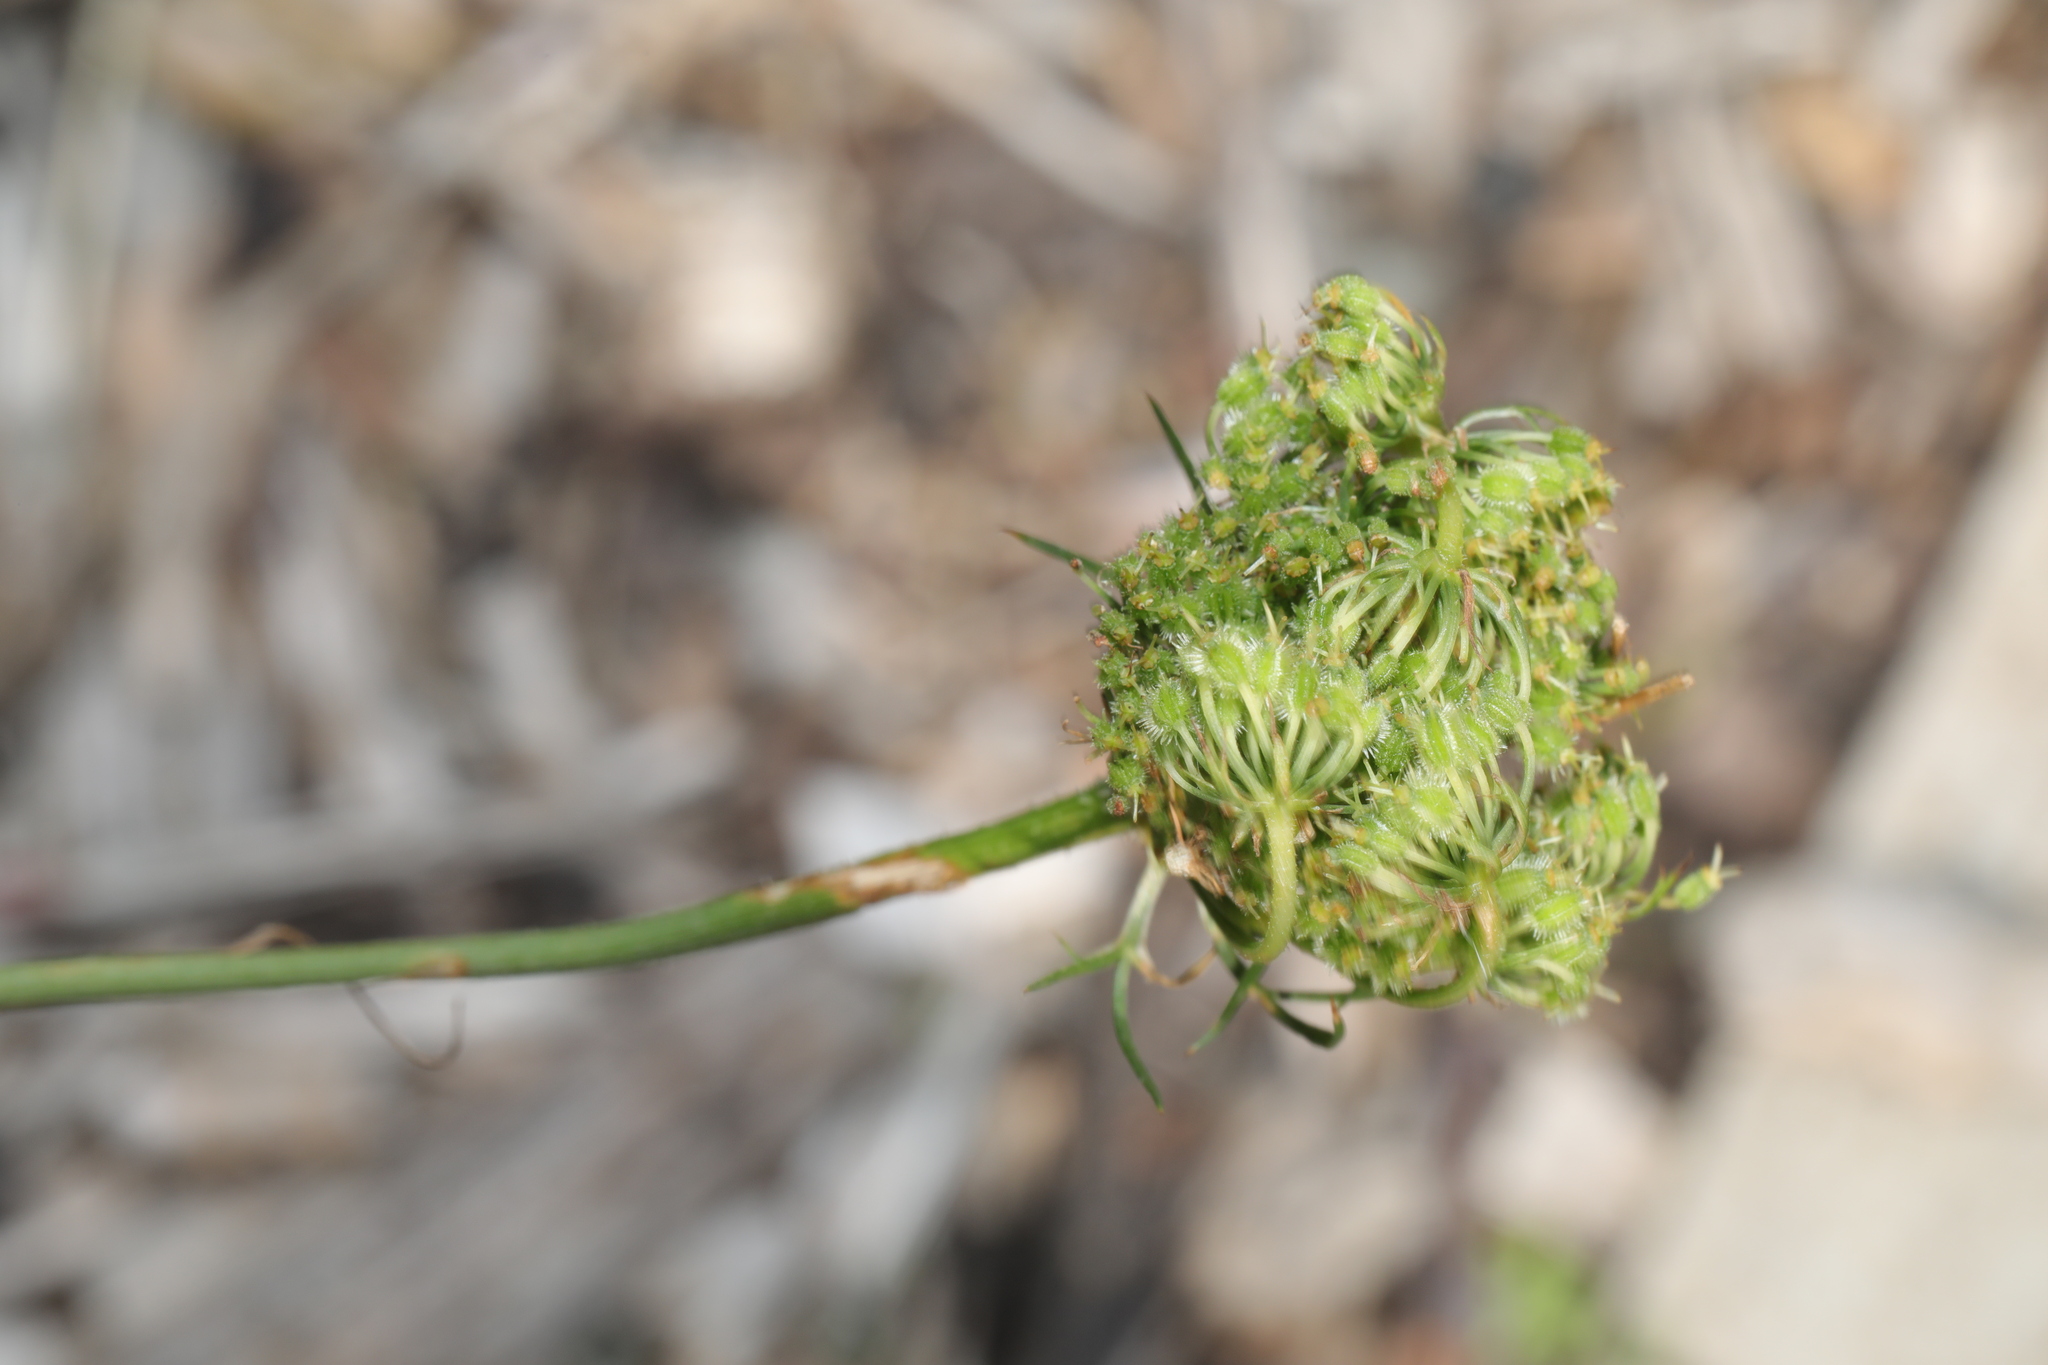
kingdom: Plantae
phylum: Tracheophyta
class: Magnoliopsida
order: Apiales
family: Apiaceae
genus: Daucus
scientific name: Daucus carota
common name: Wild carrot
